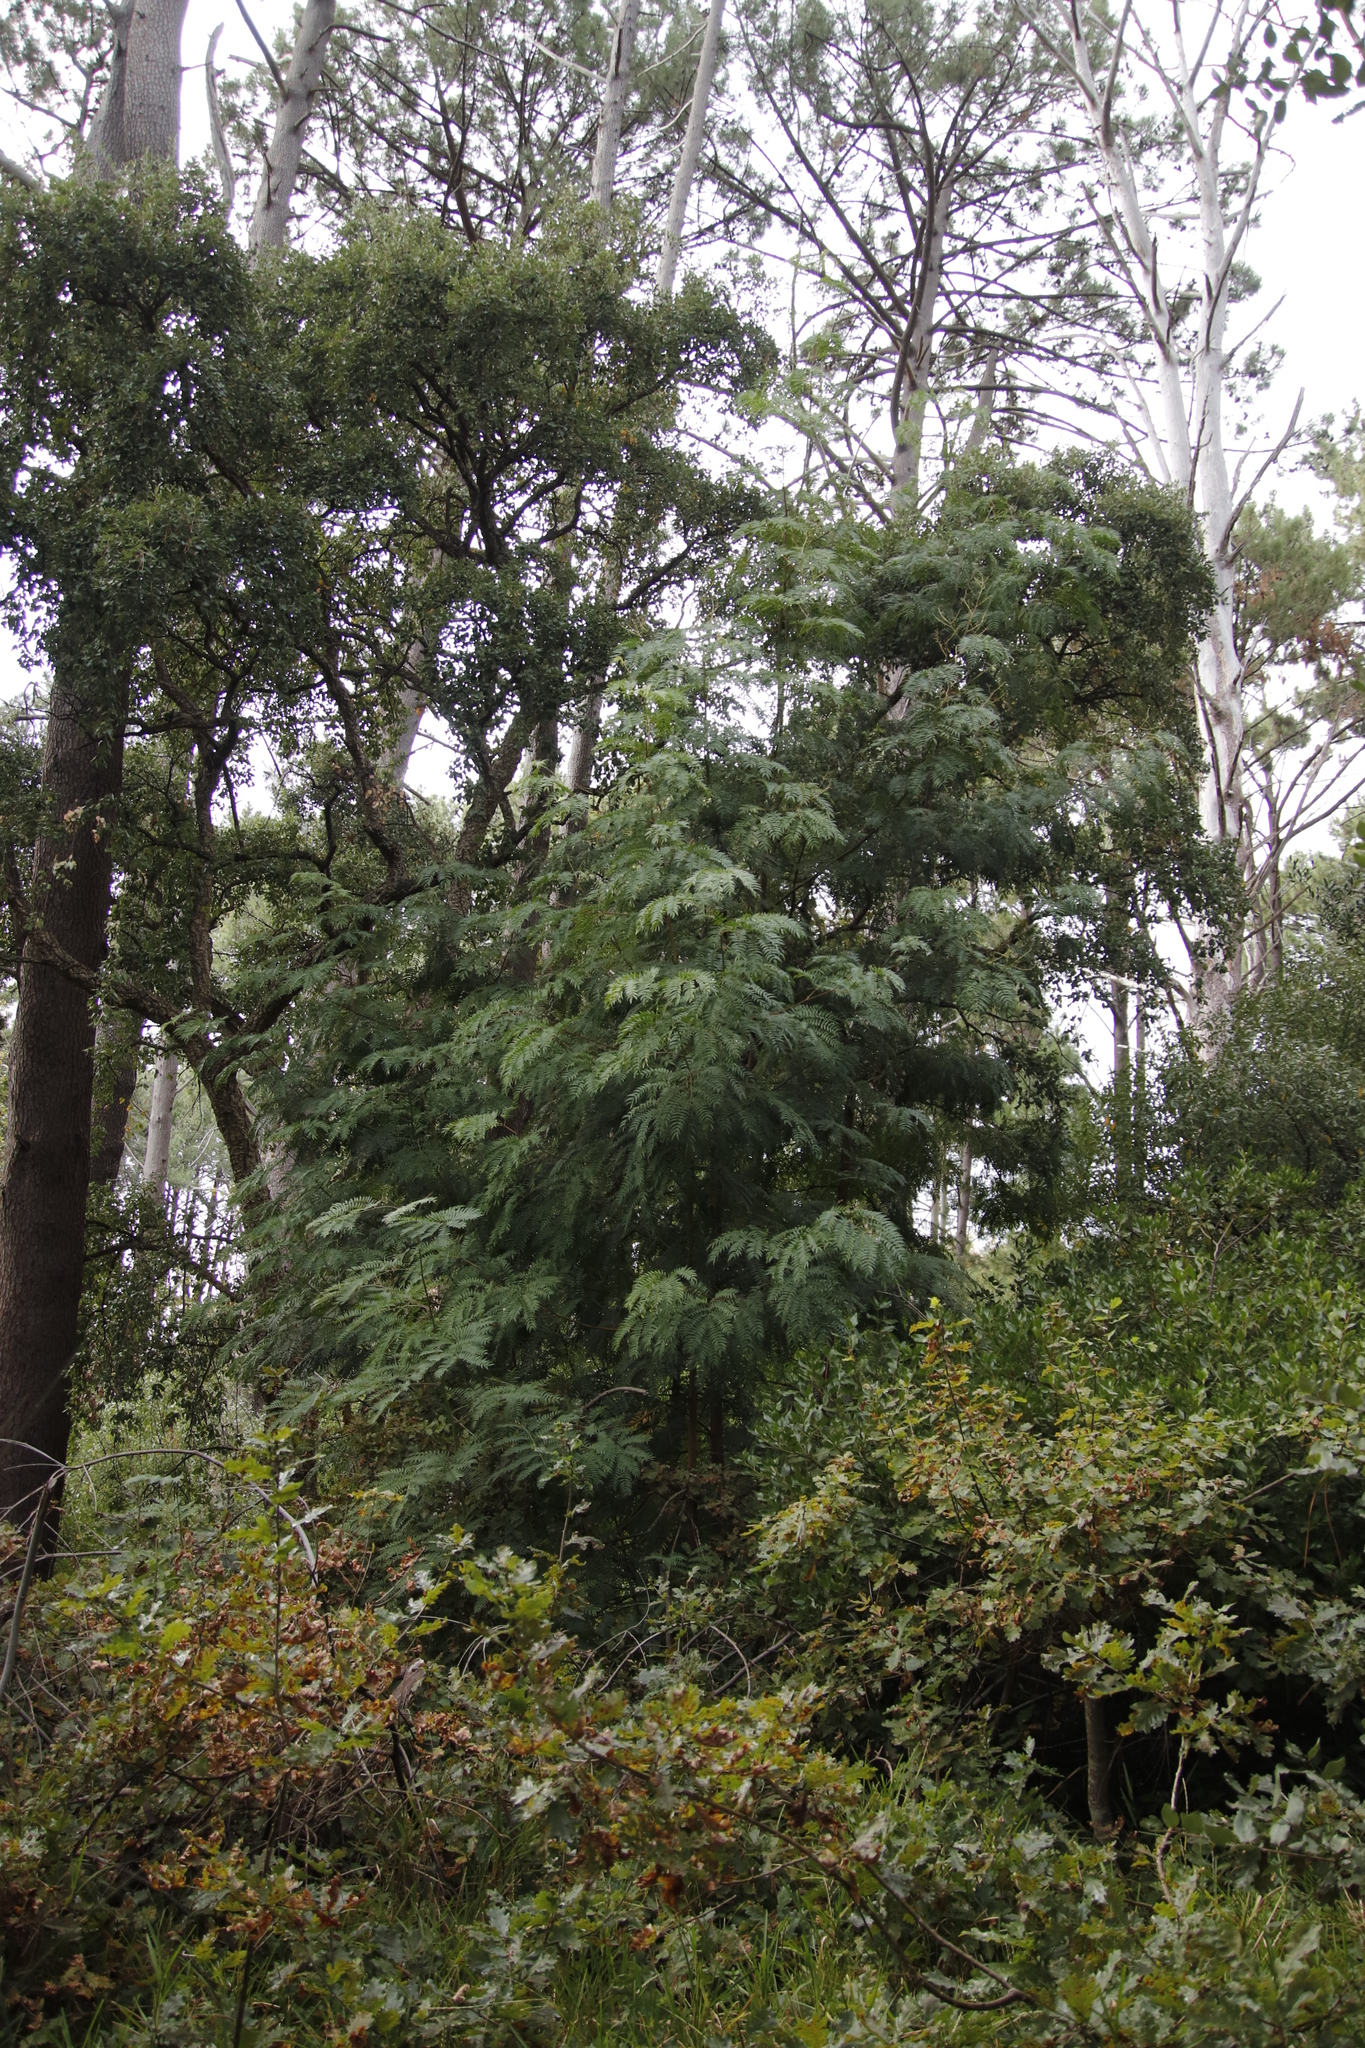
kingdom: Plantae
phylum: Tracheophyta
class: Magnoliopsida
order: Fabales
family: Fabaceae
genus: Acacia
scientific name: Acacia elata
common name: Cedar wattle
